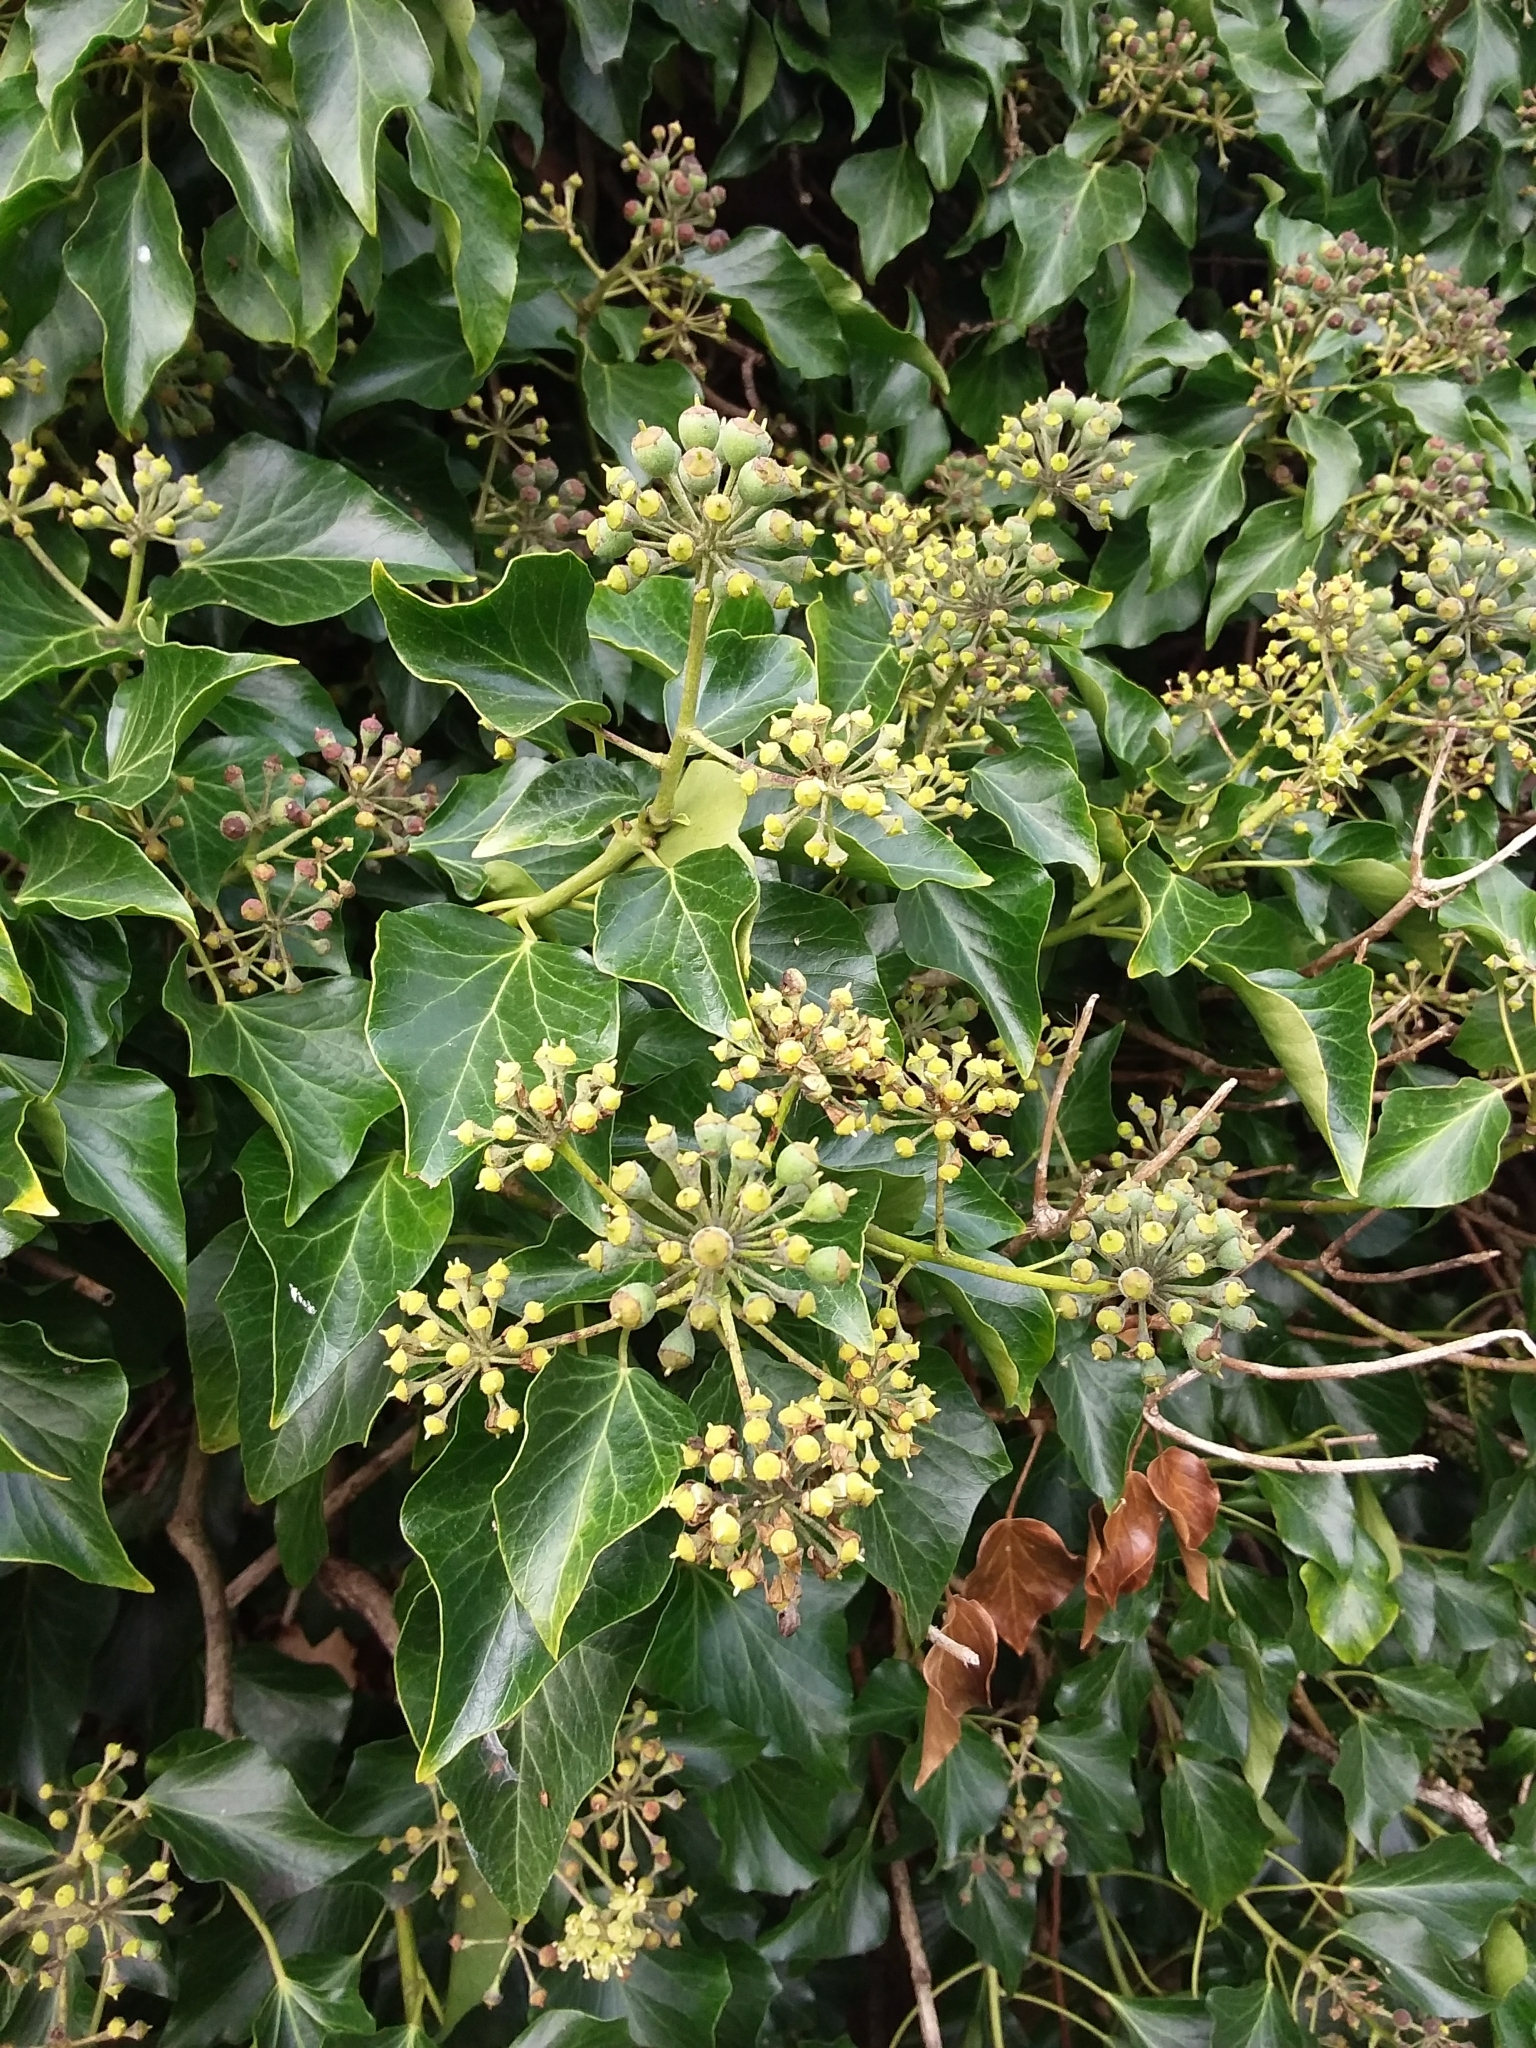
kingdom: Plantae
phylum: Tracheophyta
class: Magnoliopsida
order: Apiales
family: Araliaceae
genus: Hedera
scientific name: Hedera helix
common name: Ivy
